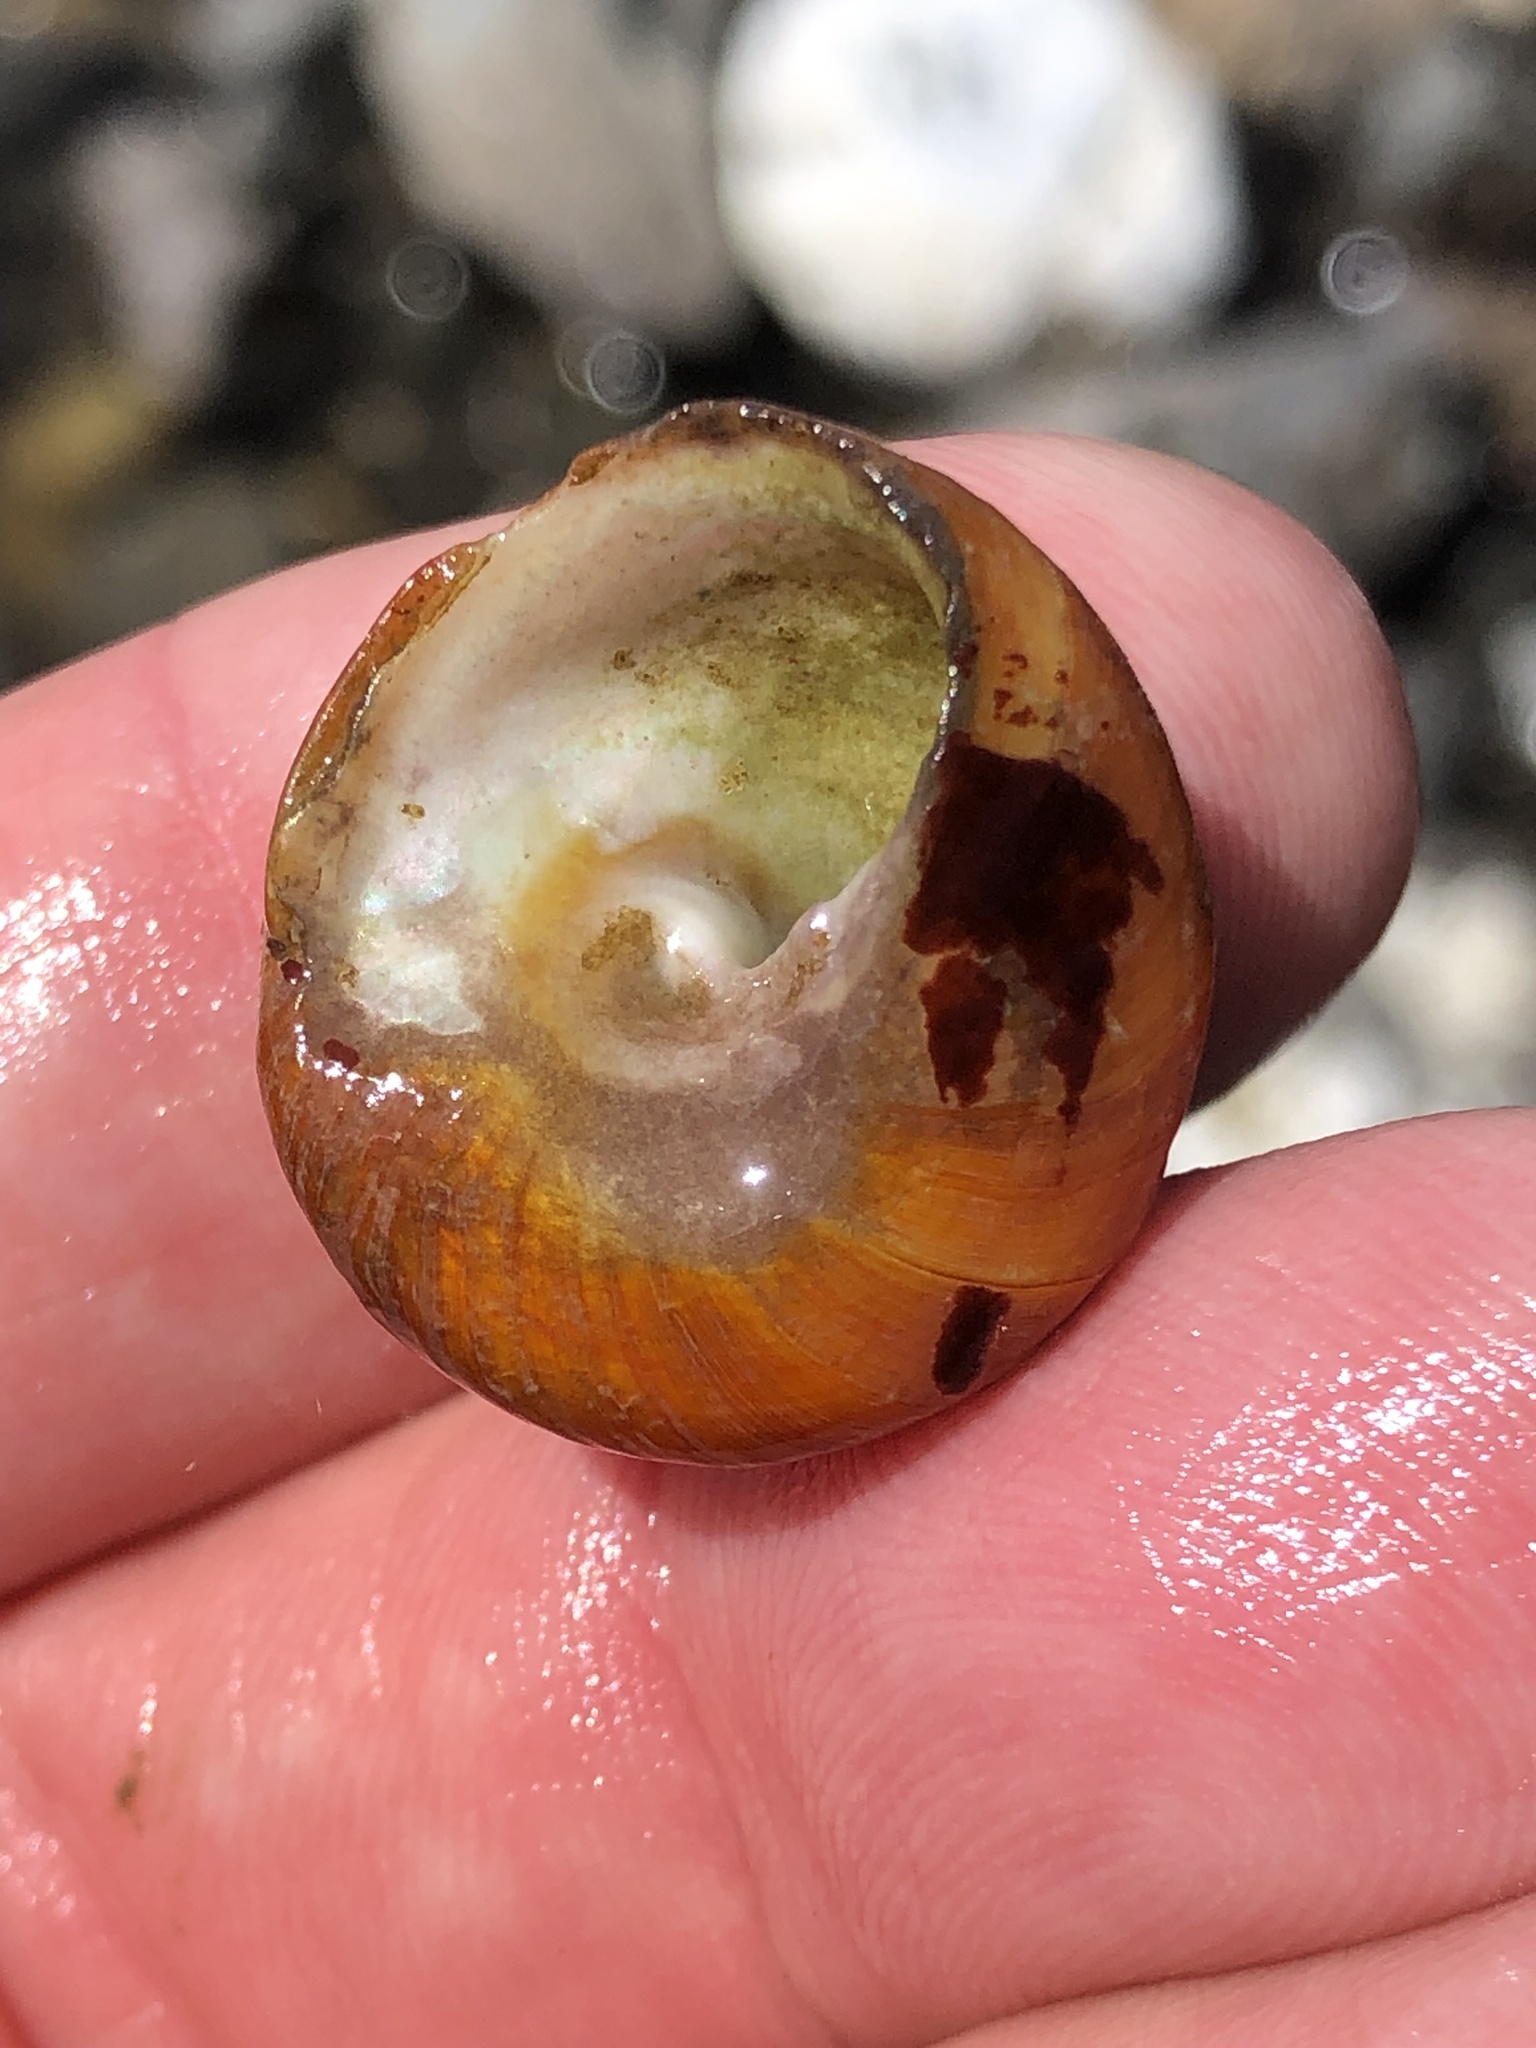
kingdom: Animalia
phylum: Mollusca
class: Gastropoda
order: Trochida
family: Tegulidae
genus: Tegula
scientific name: Tegula brunnea
